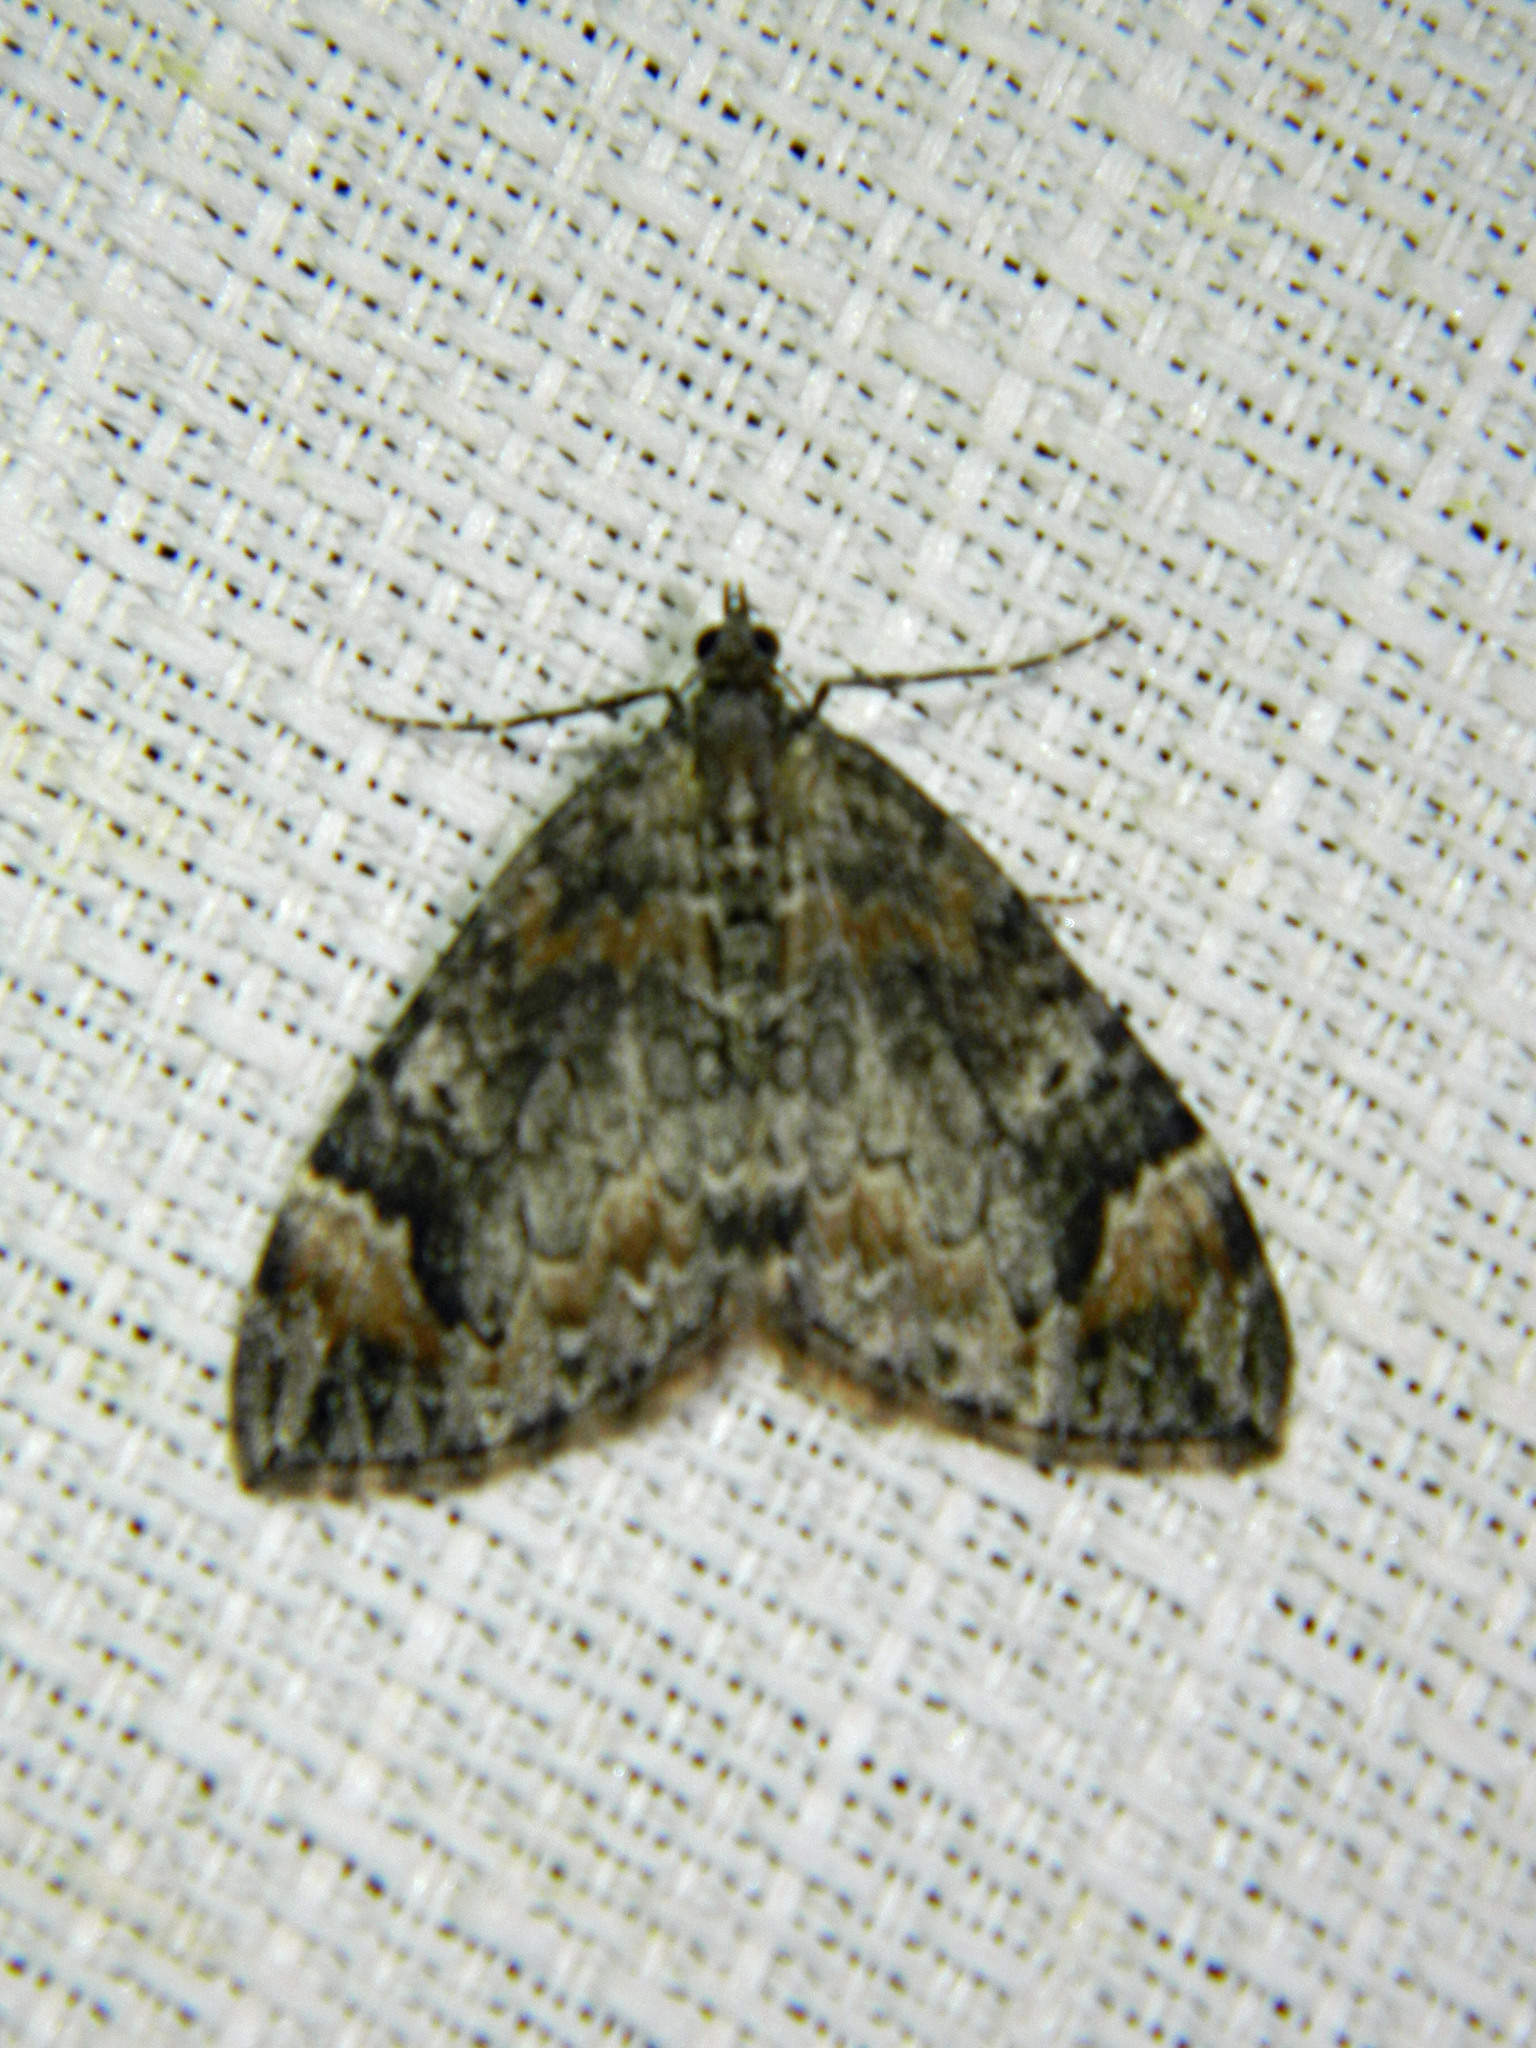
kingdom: Animalia
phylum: Arthropoda
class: Insecta
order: Lepidoptera
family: Geometridae
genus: Dysstroma
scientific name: Dysstroma citrata
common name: Dark marbled carpet
